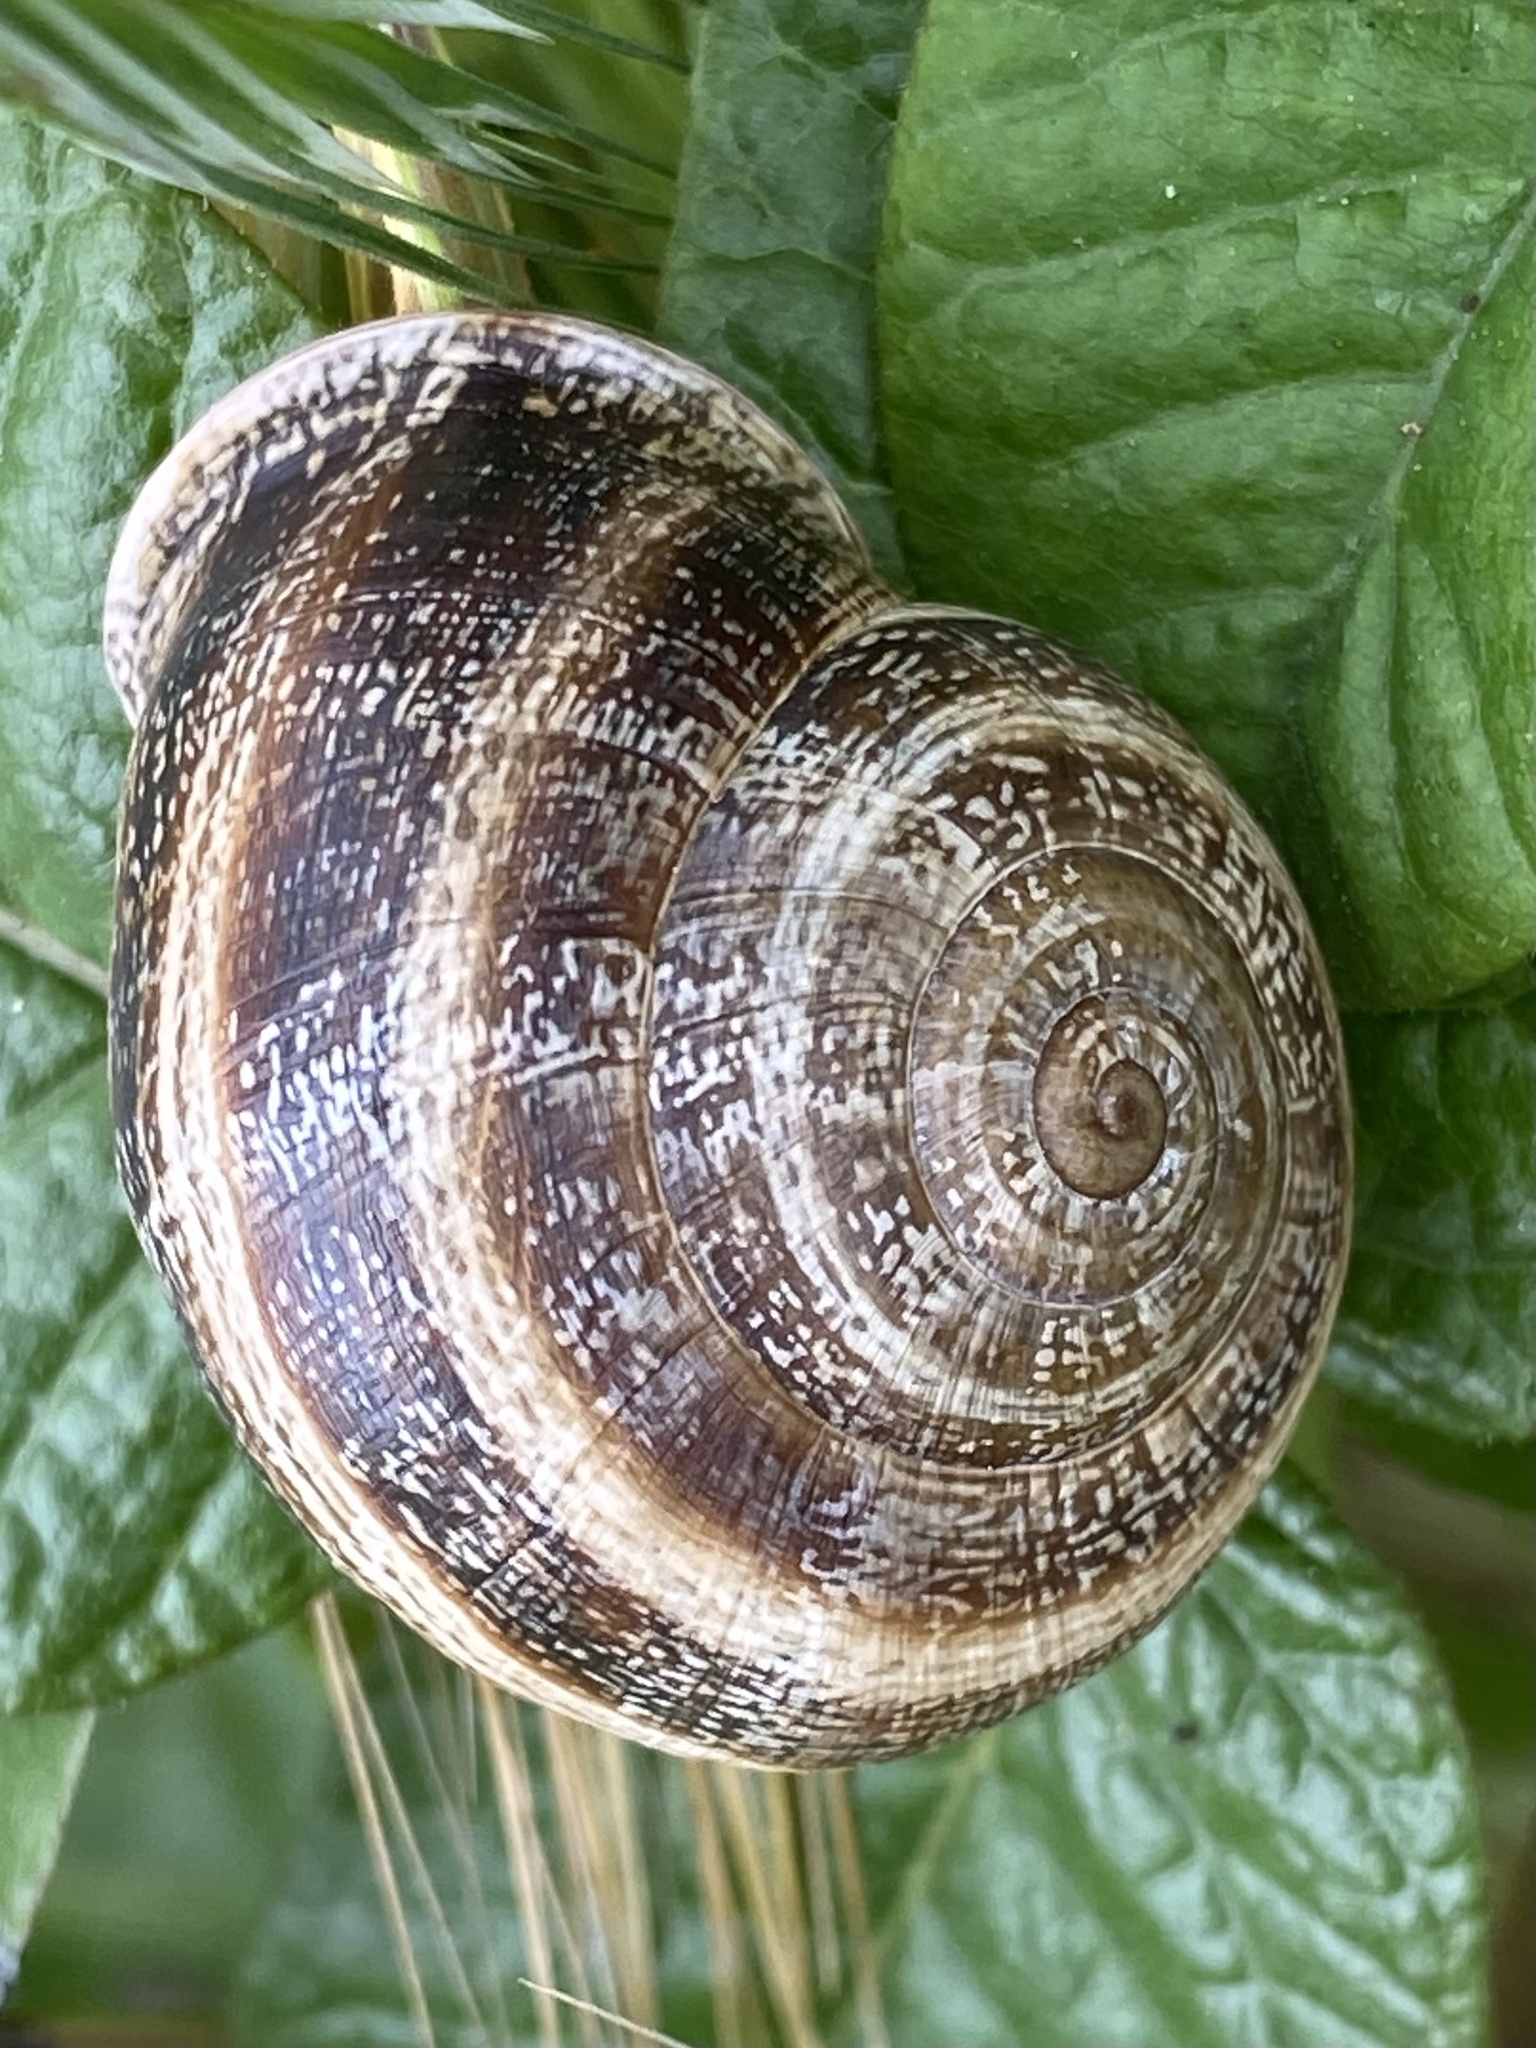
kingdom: Animalia
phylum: Mollusca
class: Gastropoda
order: Stylommatophora
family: Helicidae
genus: Otala
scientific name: Otala lactea
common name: Milk snail
